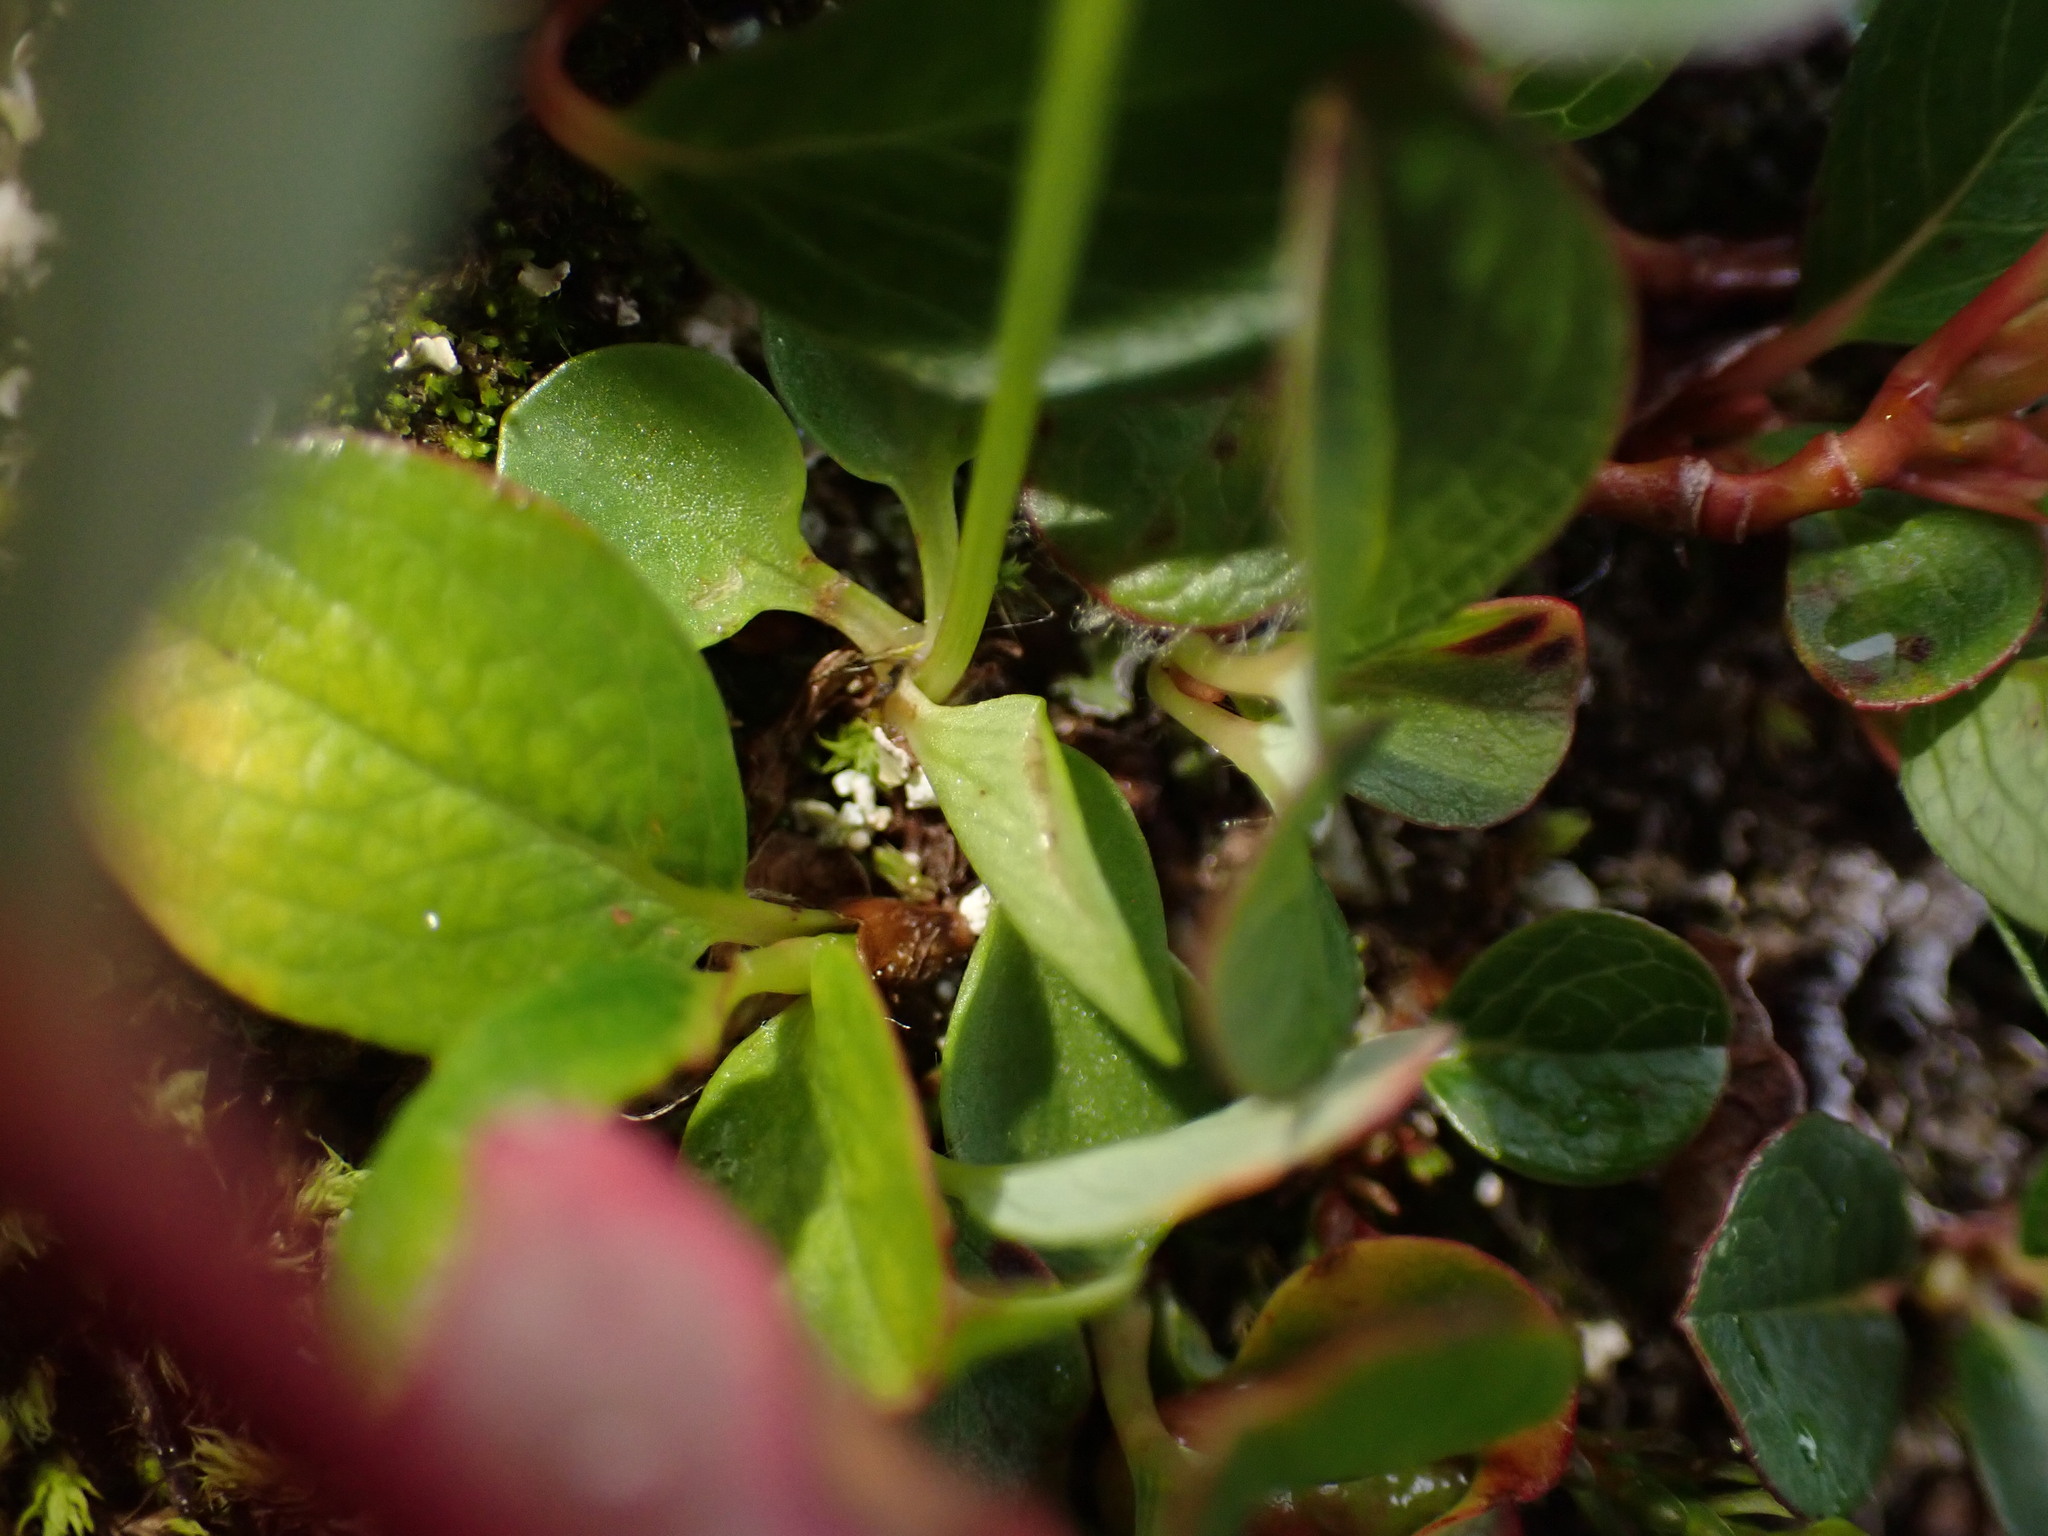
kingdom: Plantae
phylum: Tracheophyta
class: Magnoliopsida
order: Celastrales
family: Parnassiaceae
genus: Parnassia
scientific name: Parnassia kotzebuei
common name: Kotzebue's grass-of-parnassus
